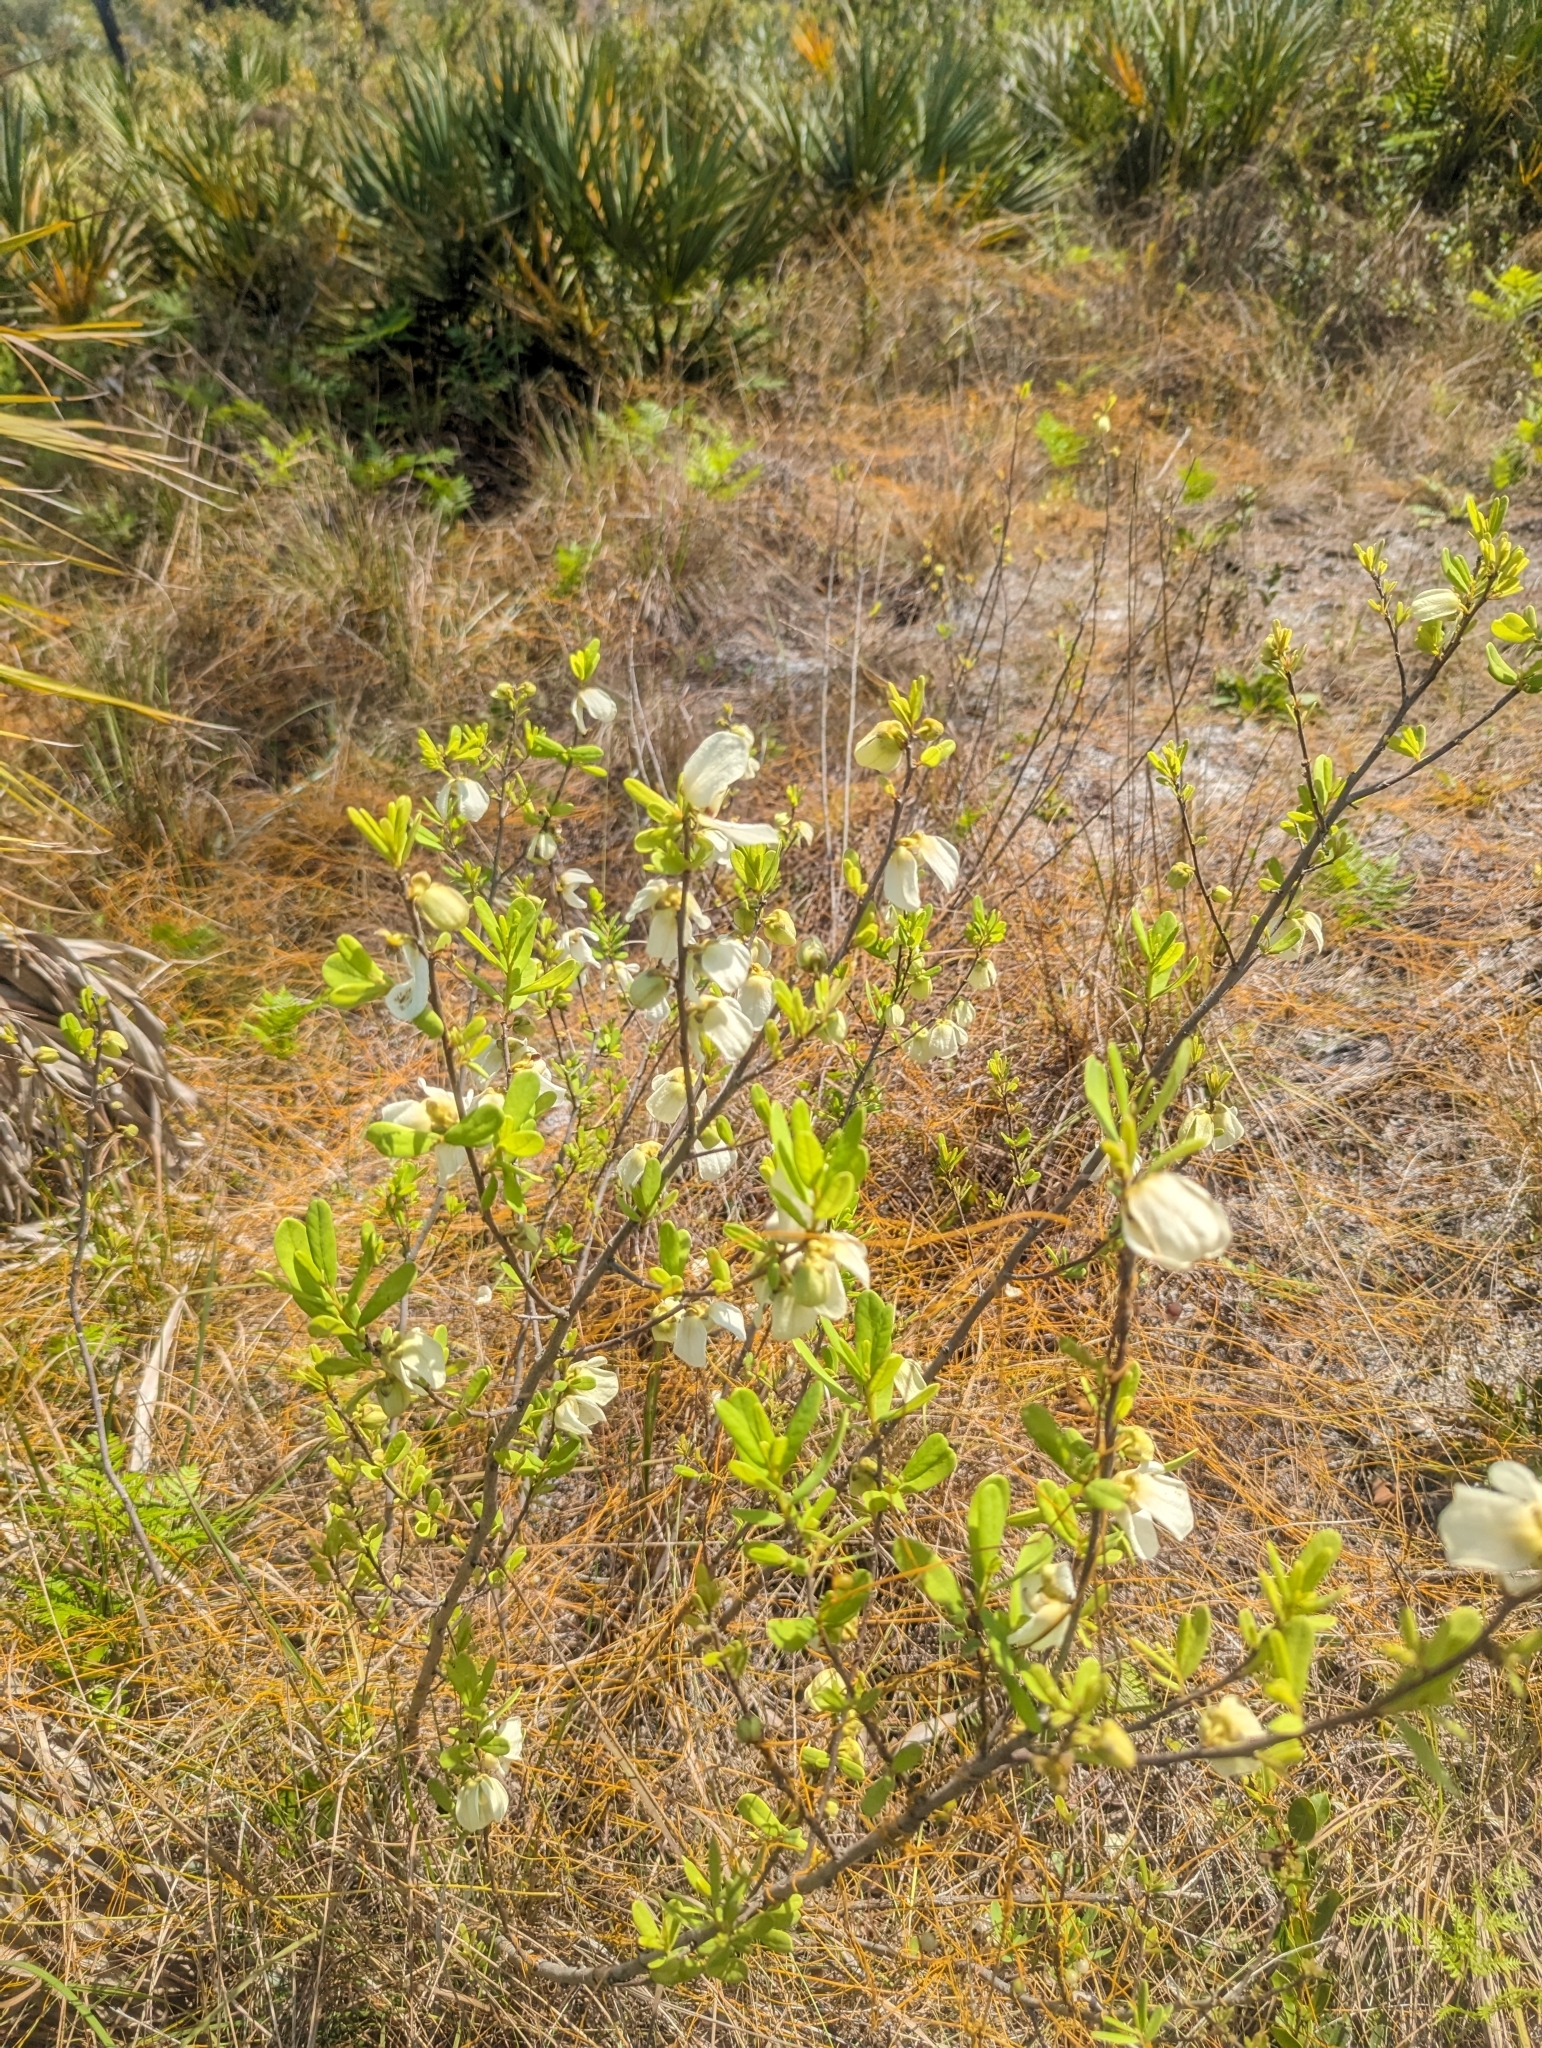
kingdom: Plantae
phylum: Tracheophyta
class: Magnoliopsida
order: Magnoliales
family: Annonaceae
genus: Asimina
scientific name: Asimina reticulata
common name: Flag pawpaw
